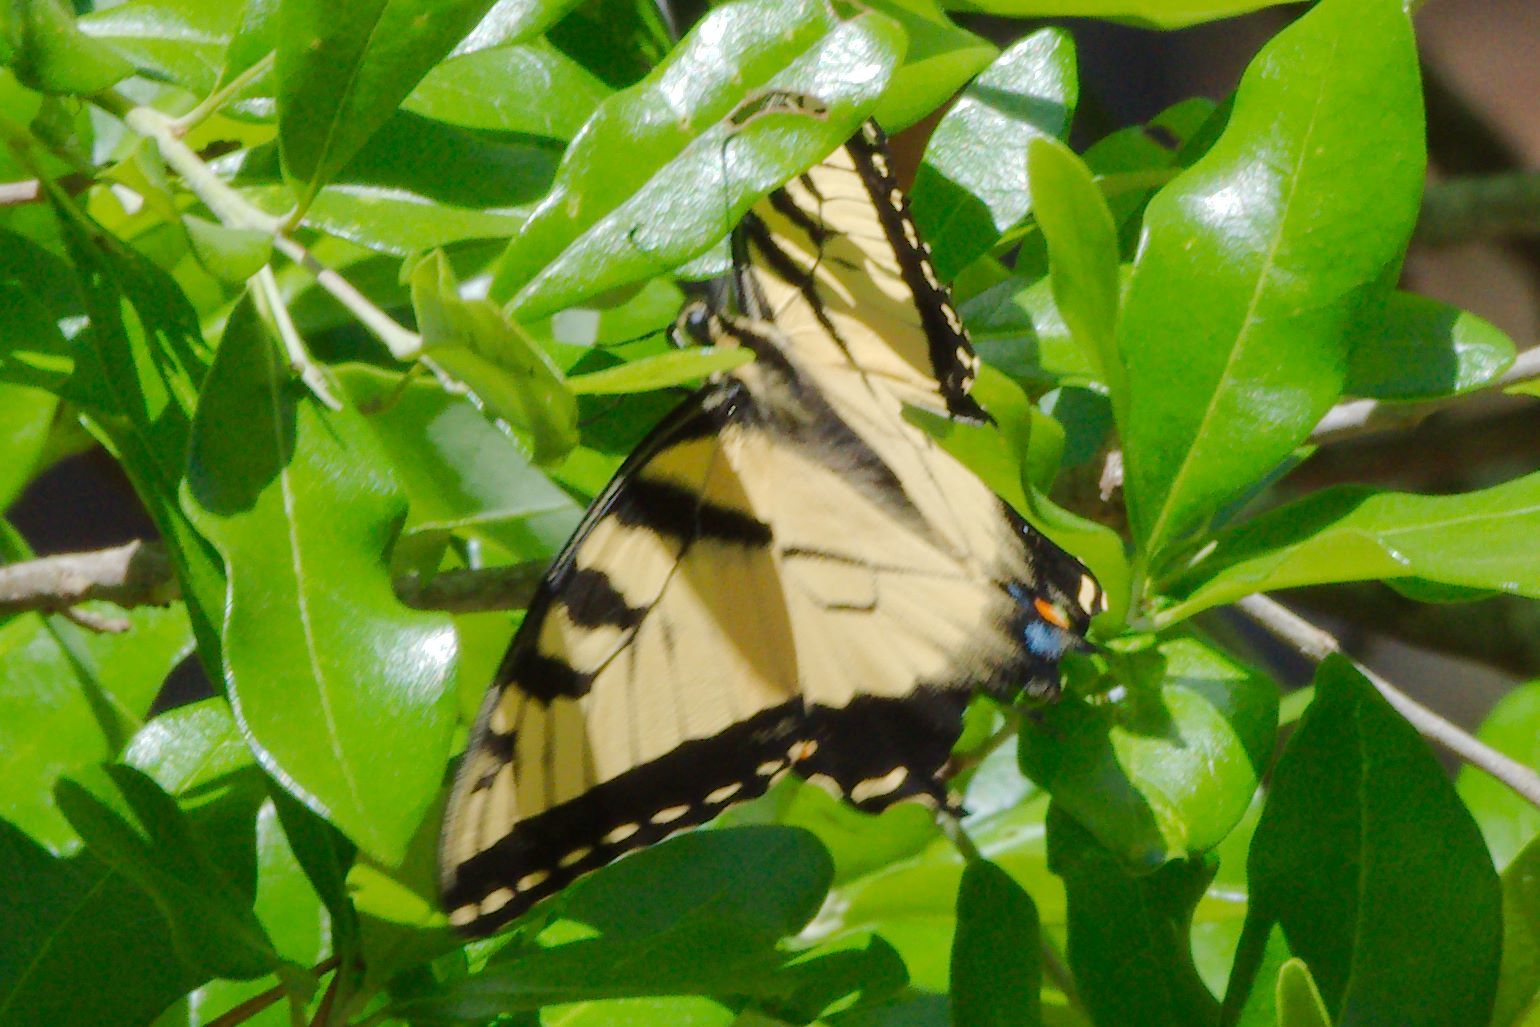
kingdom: Animalia
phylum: Arthropoda
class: Insecta
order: Lepidoptera
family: Papilionidae
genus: Papilio
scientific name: Papilio glaucus
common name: Tiger swallowtail
